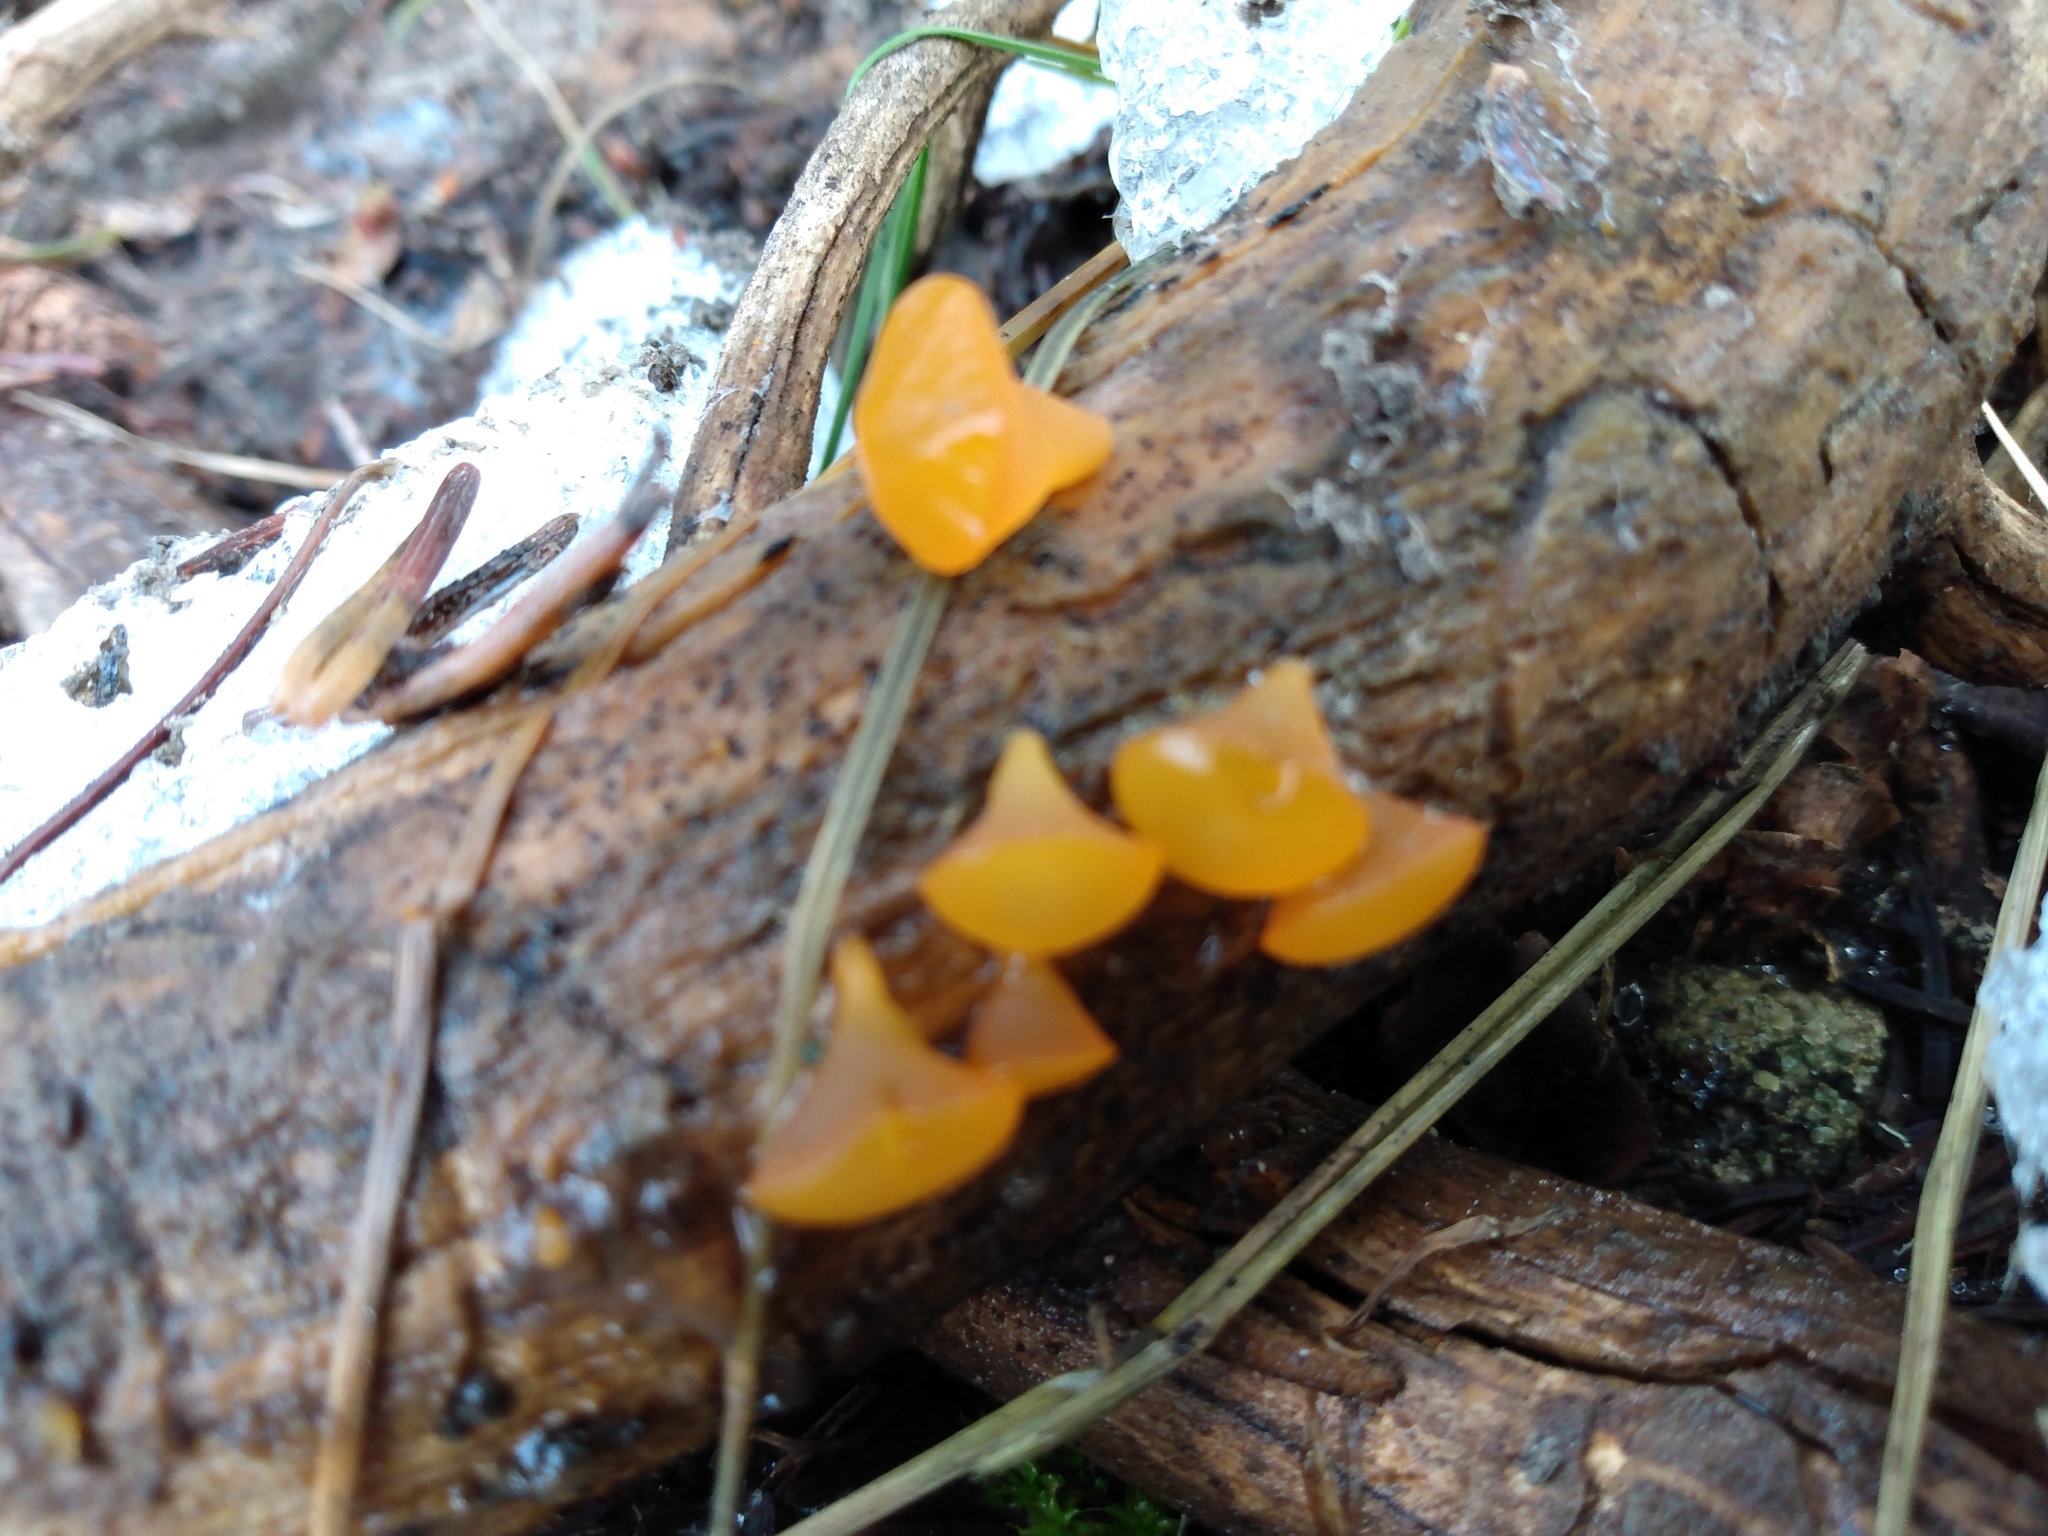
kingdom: Fungi
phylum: Basidiomycota
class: Dacrymycetes
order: Dacrymycetales
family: Dacrymycetaceae
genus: Guepiniopsis
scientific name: Guepiniopsis alpina
